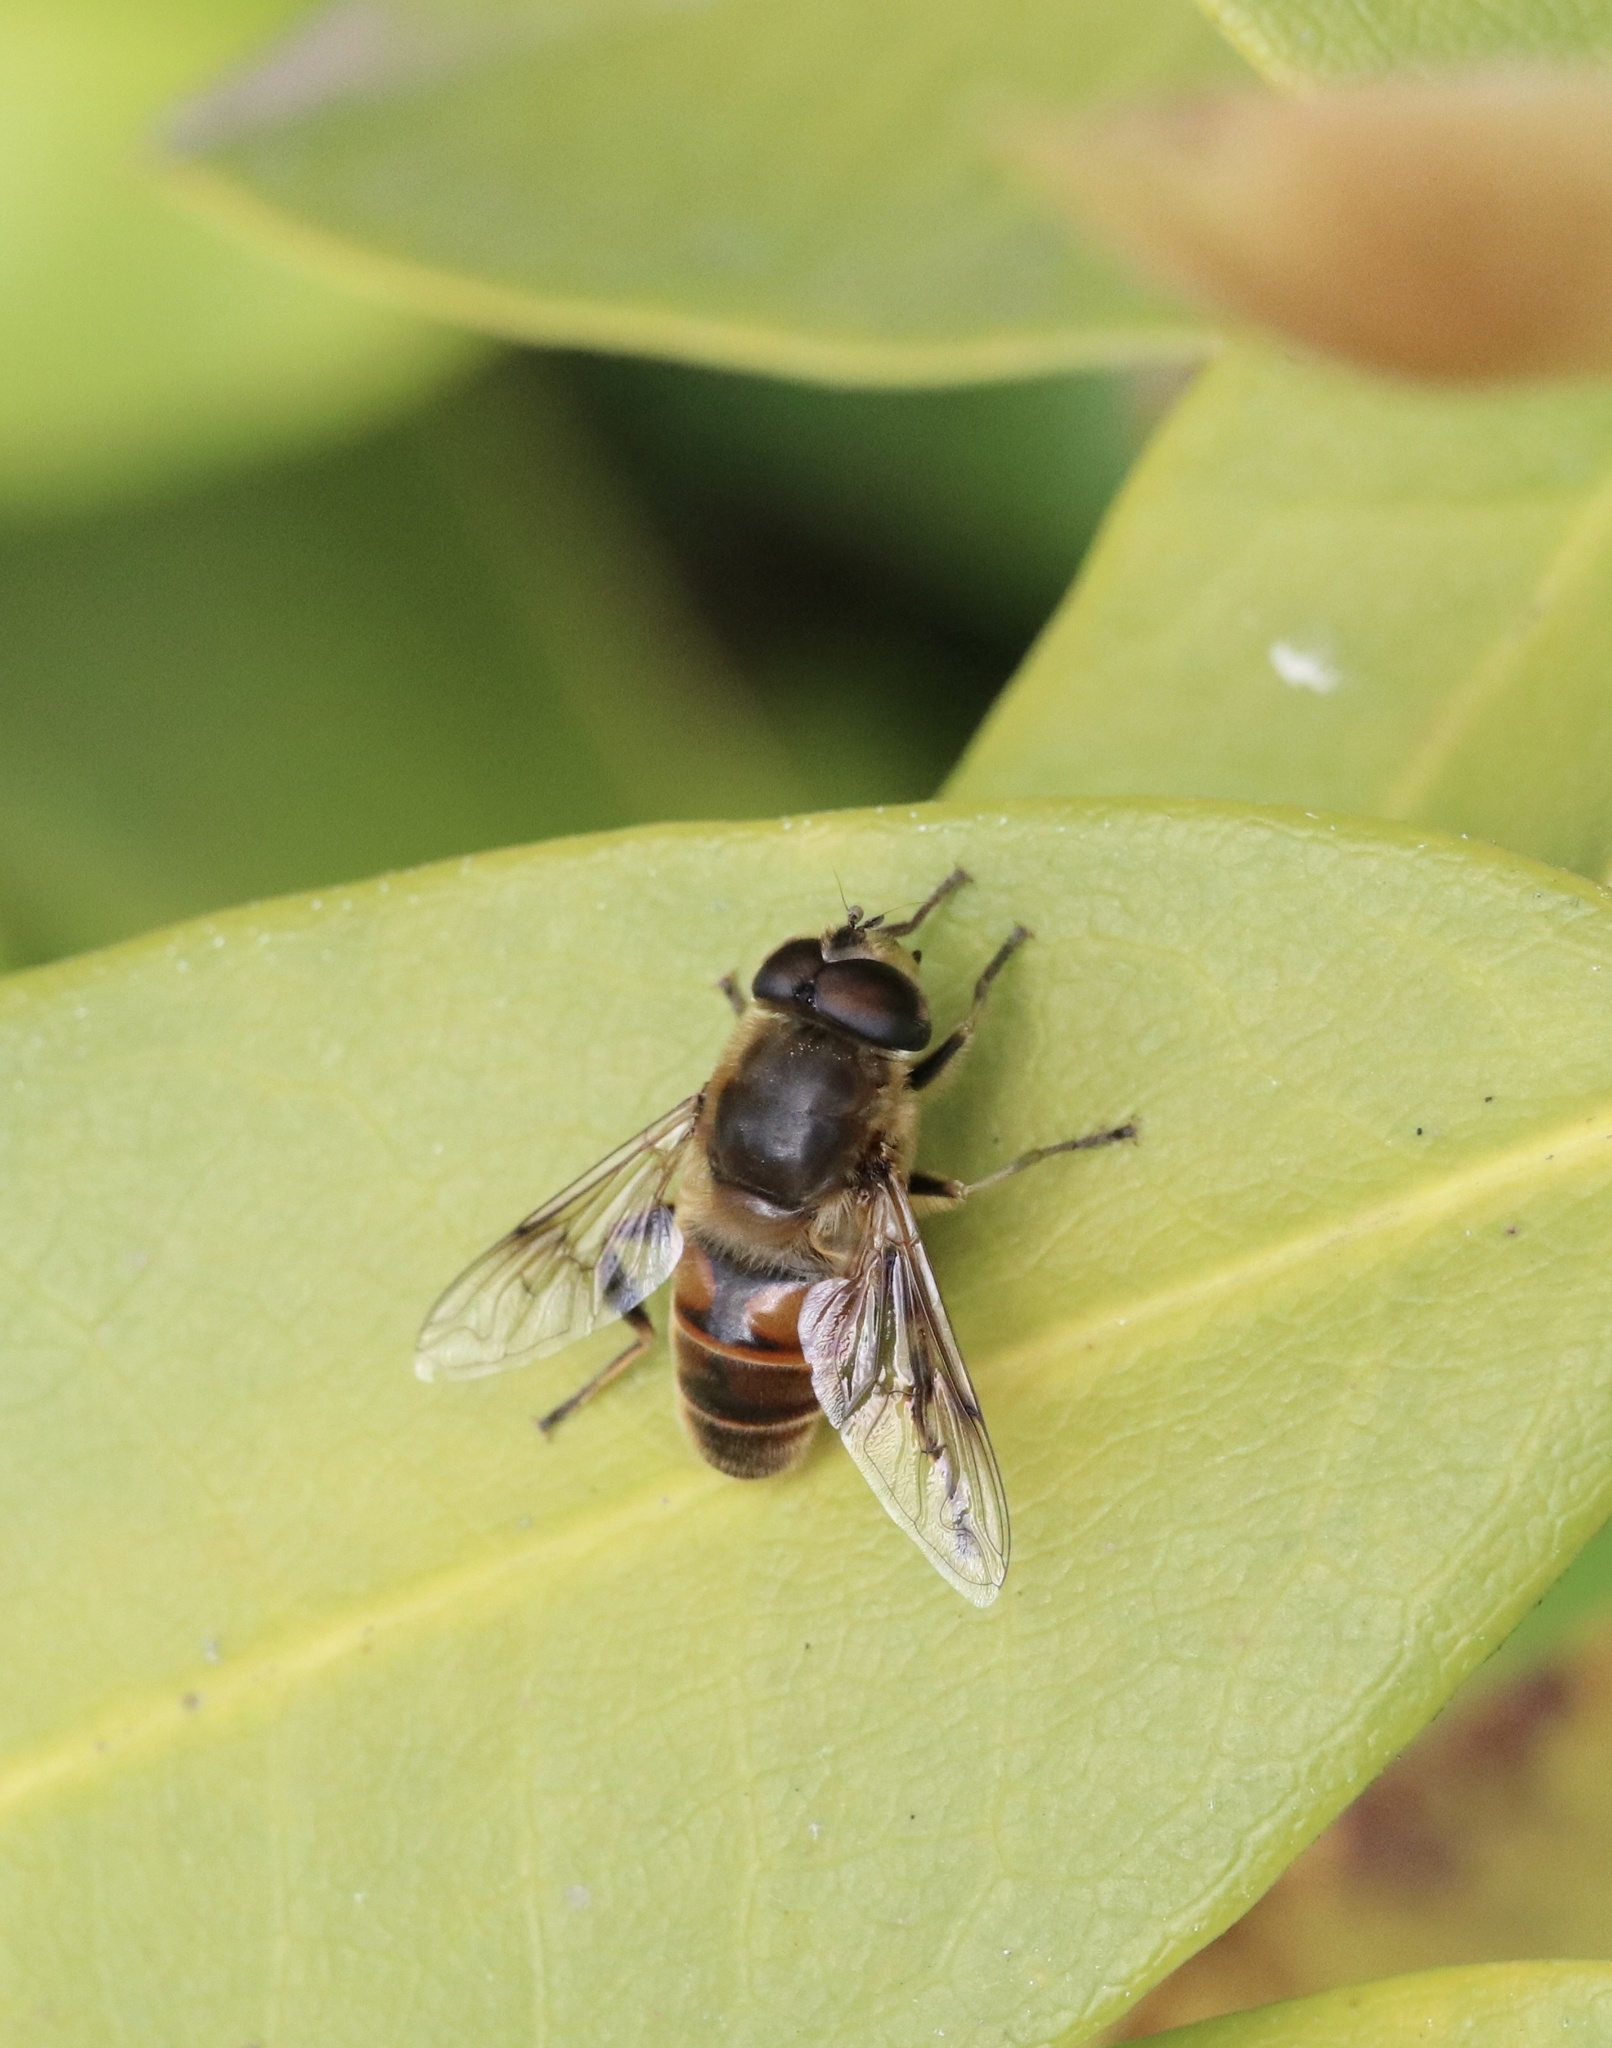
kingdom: Animalia
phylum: Arthropoda
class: Insecta
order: Diptera
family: Syrphidae
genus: Eristalis
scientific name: Eristalis tenax
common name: Drone fly
